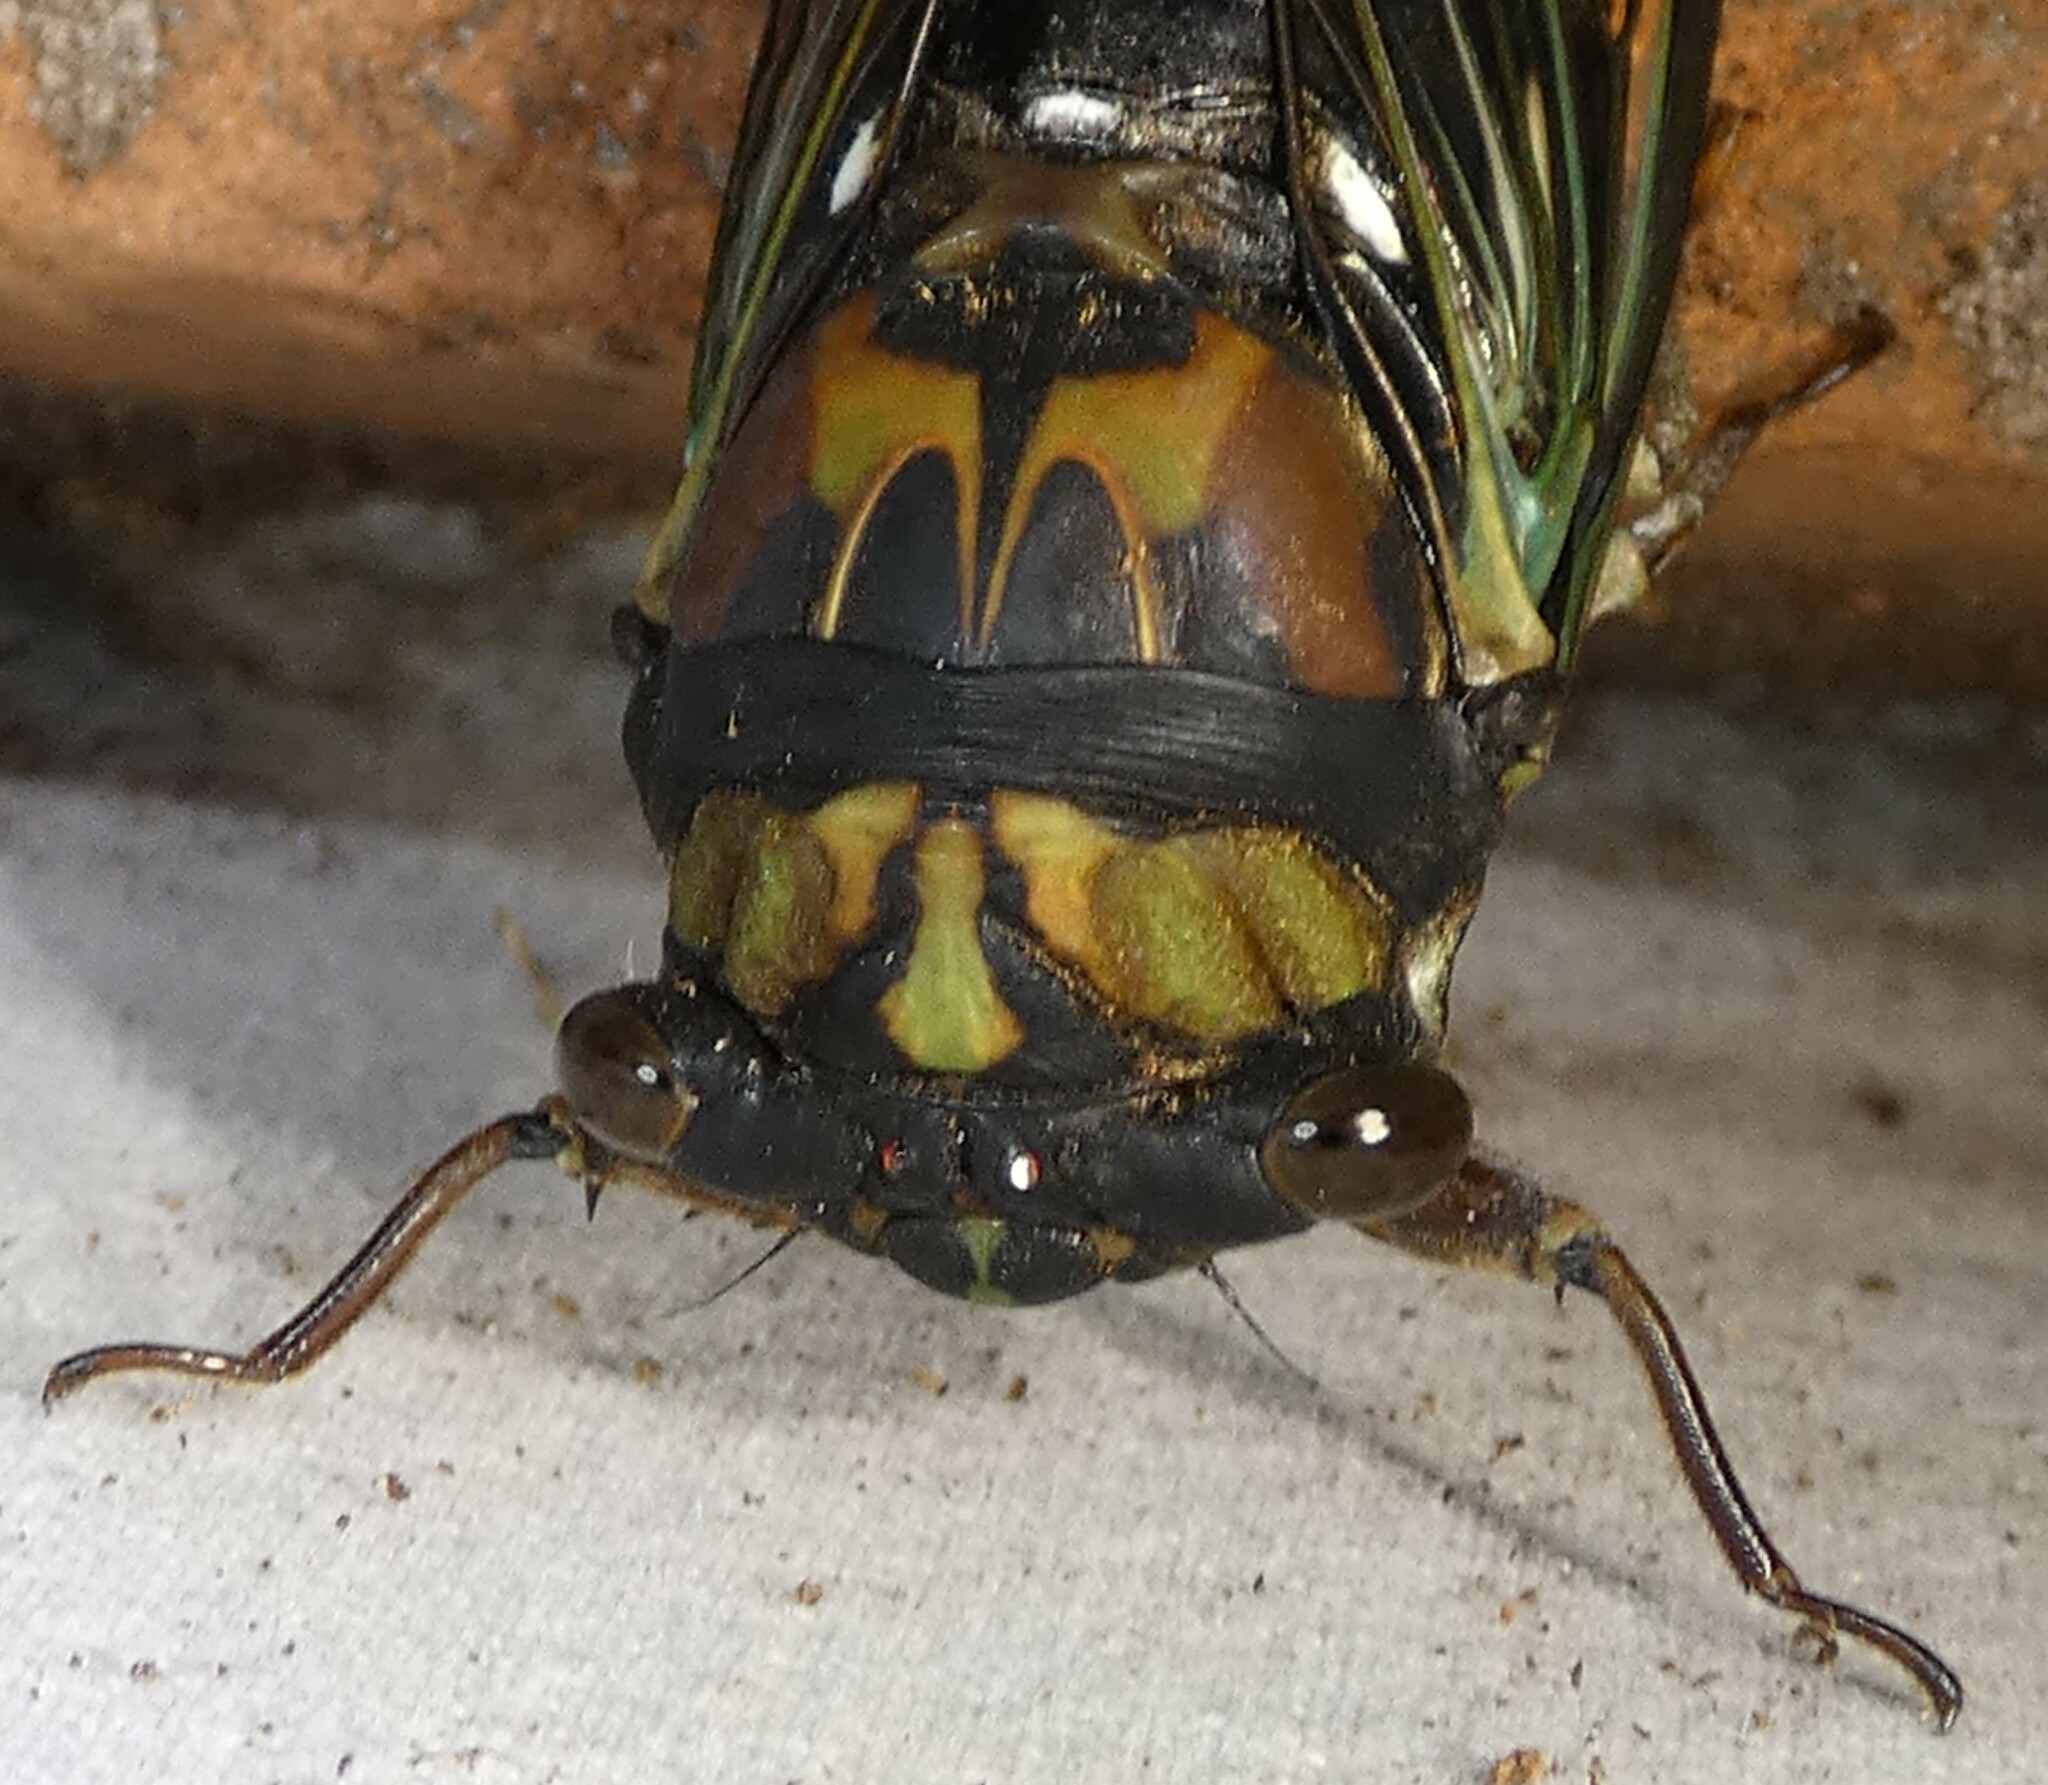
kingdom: Animalia
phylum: Arthropoda
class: Insecta
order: Hemiptera
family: Cicadidae
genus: Neotibicen
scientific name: Neotibicen lyricen
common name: Lyric cicada
